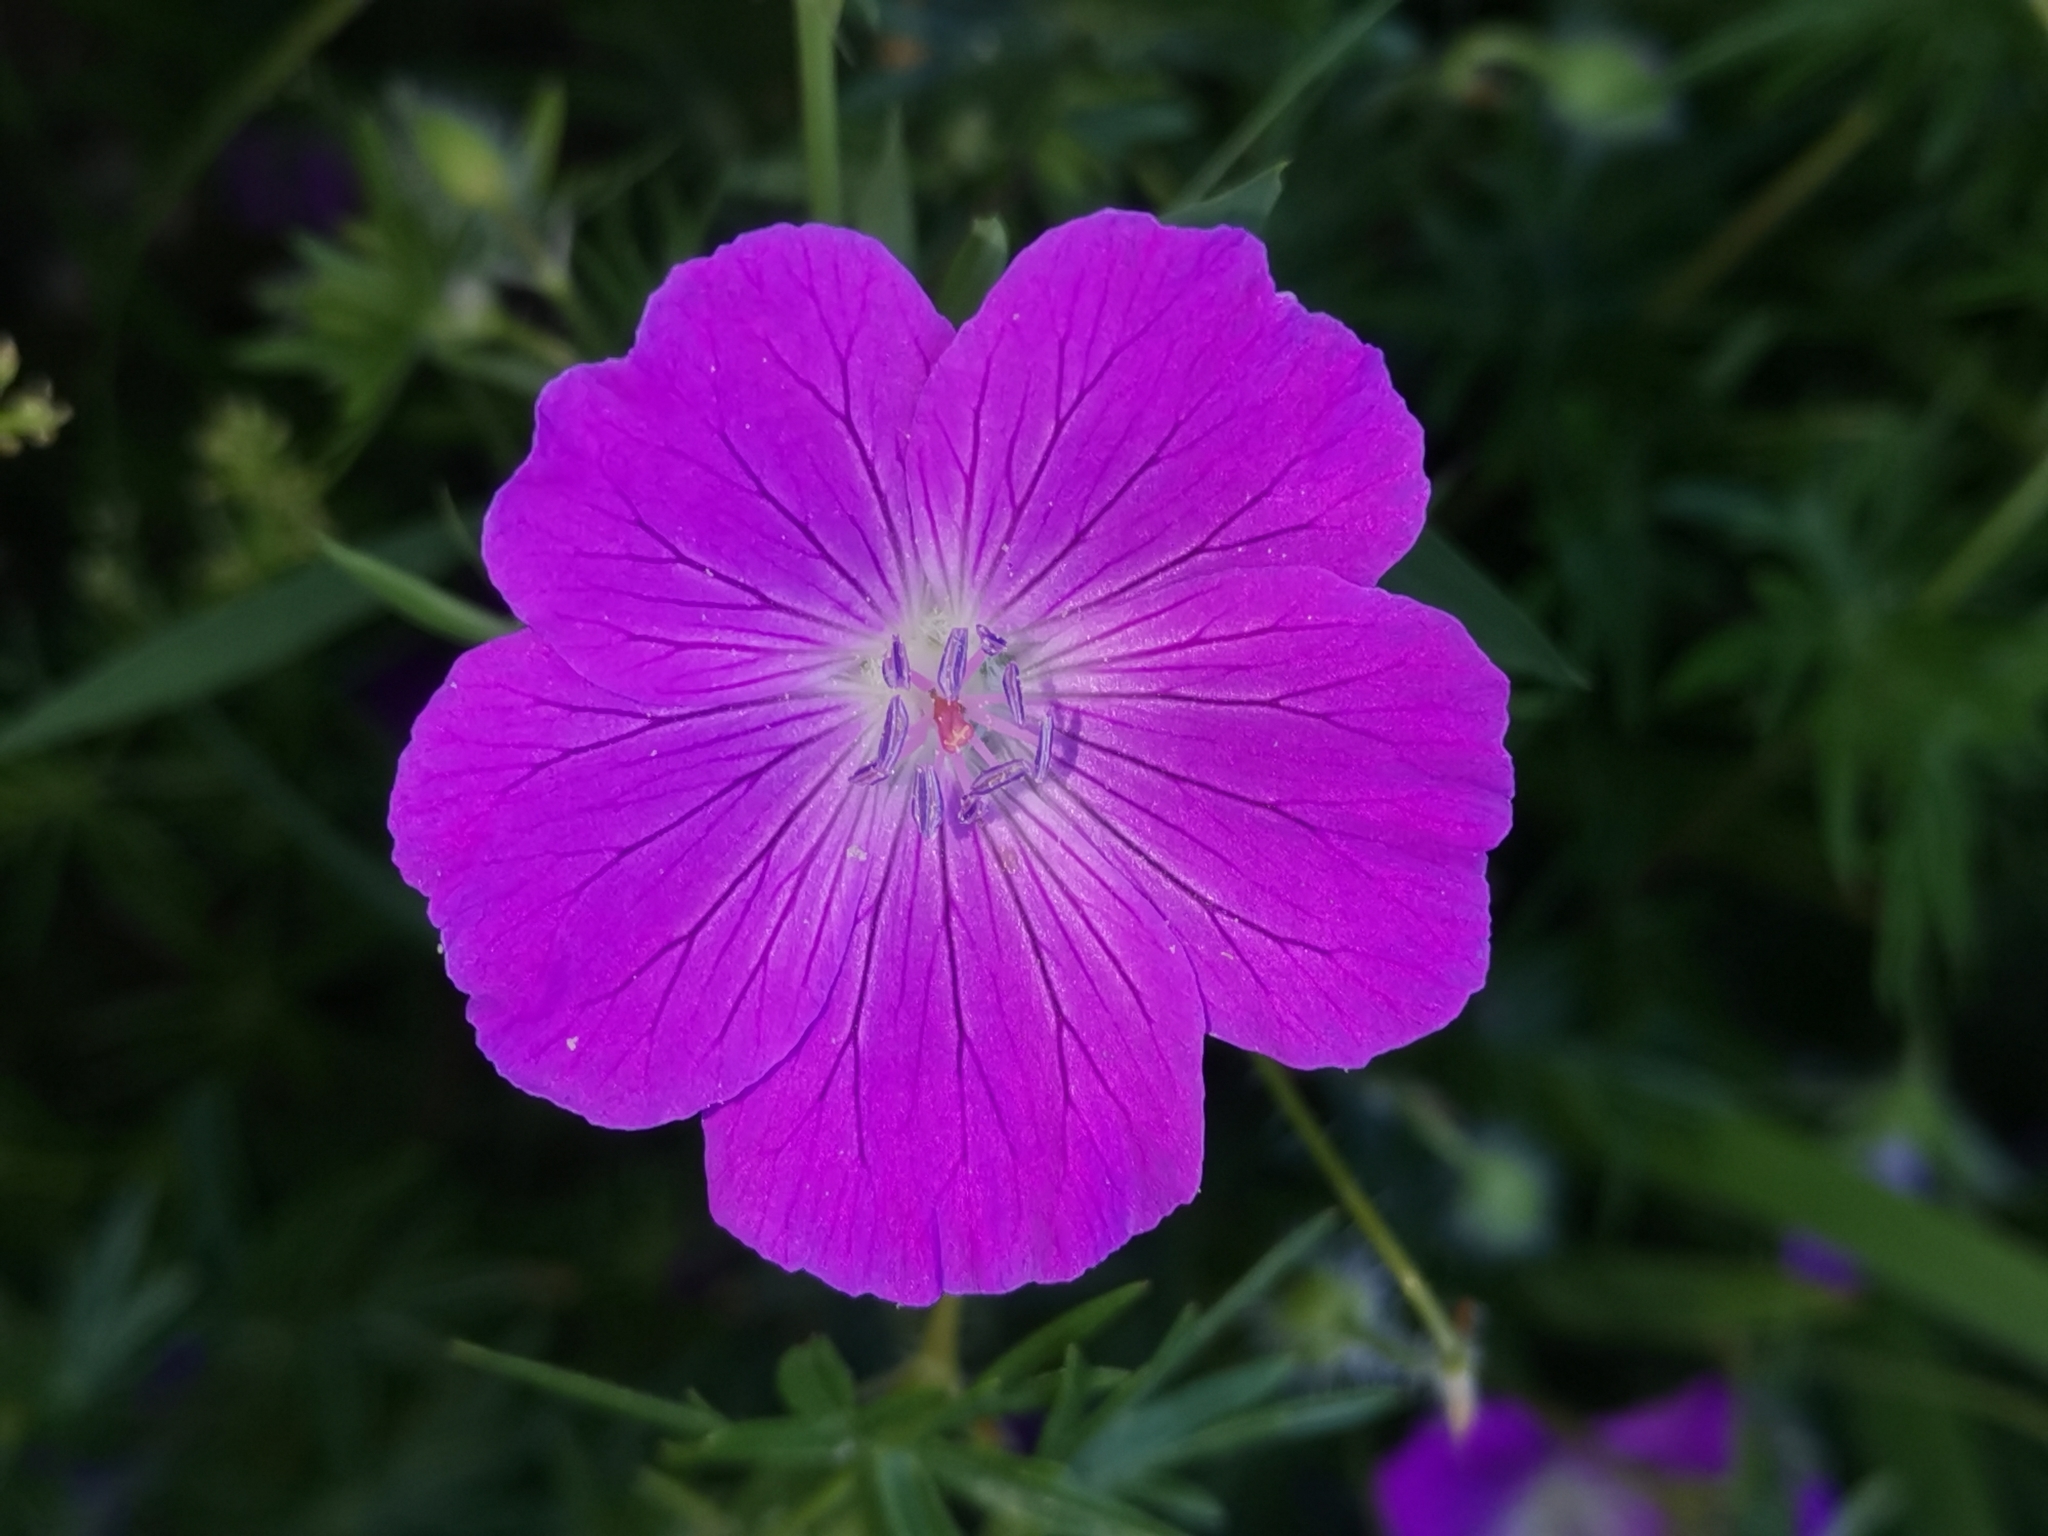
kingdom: Plantae
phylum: Tracheophyta
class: Magnoliopsida
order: Geraniales
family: Geraniaceae
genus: Geranium
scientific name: Geranium sanguineum
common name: Bloody crane's-bill
